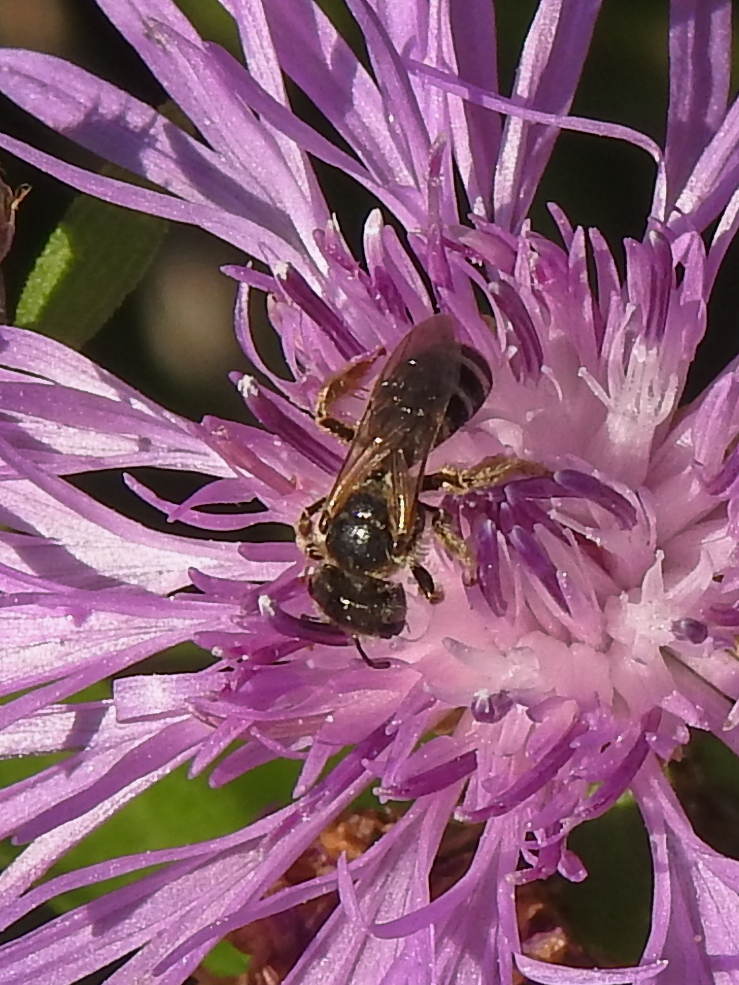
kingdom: Animalia
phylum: Arthropoda
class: Insecta
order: Hymenoptera
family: Halictidae
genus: Halictus
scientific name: Halictus ligatus
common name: Ligated furrow bee
